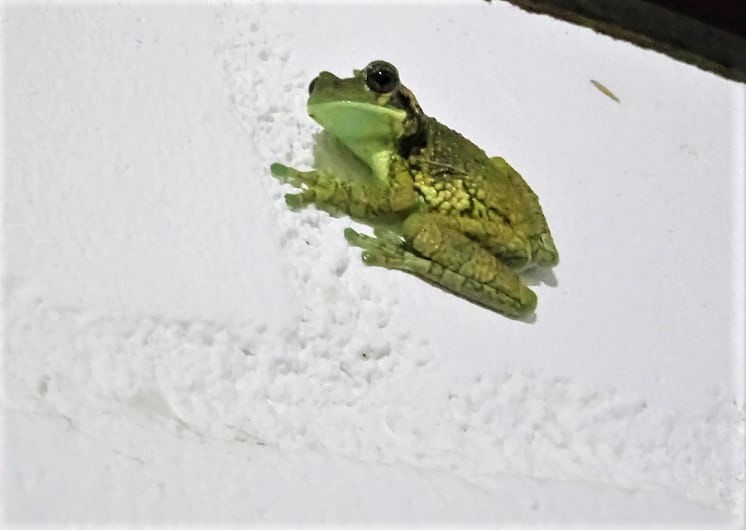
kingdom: Animalia
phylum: Chordata
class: Amphibia
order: Anura
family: Hylidae
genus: Trachycephalus
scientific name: Trachycephalus typhonius
